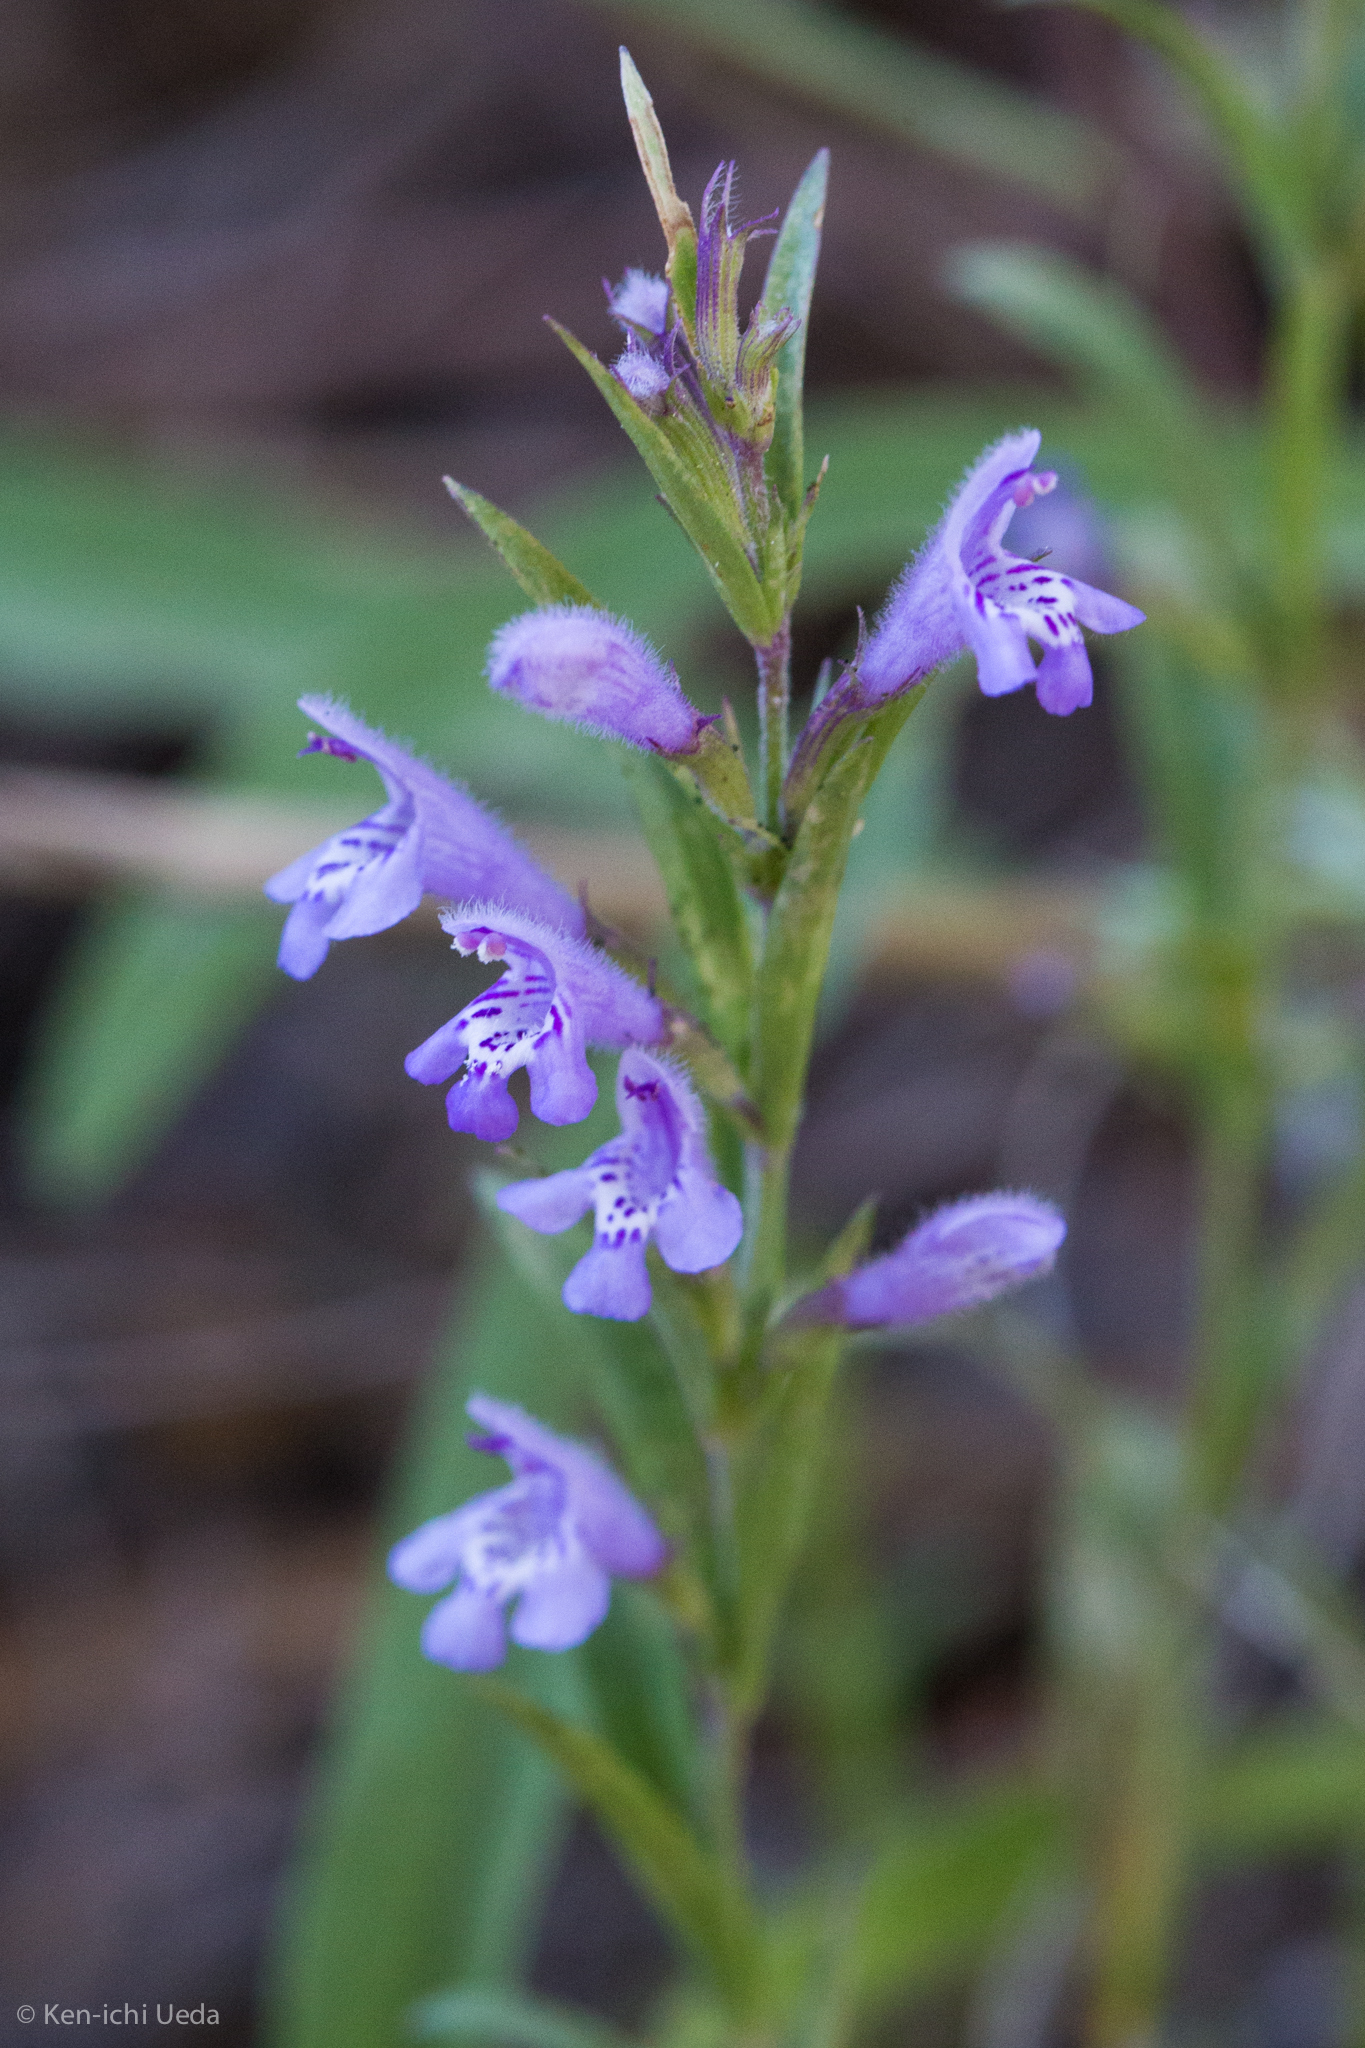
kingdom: Plantae
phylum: Tracheophyta
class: Magnoliopsida
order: Lamiales
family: Lamiaceae
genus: Hedeoma
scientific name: Hedeoma hyssopifolia
